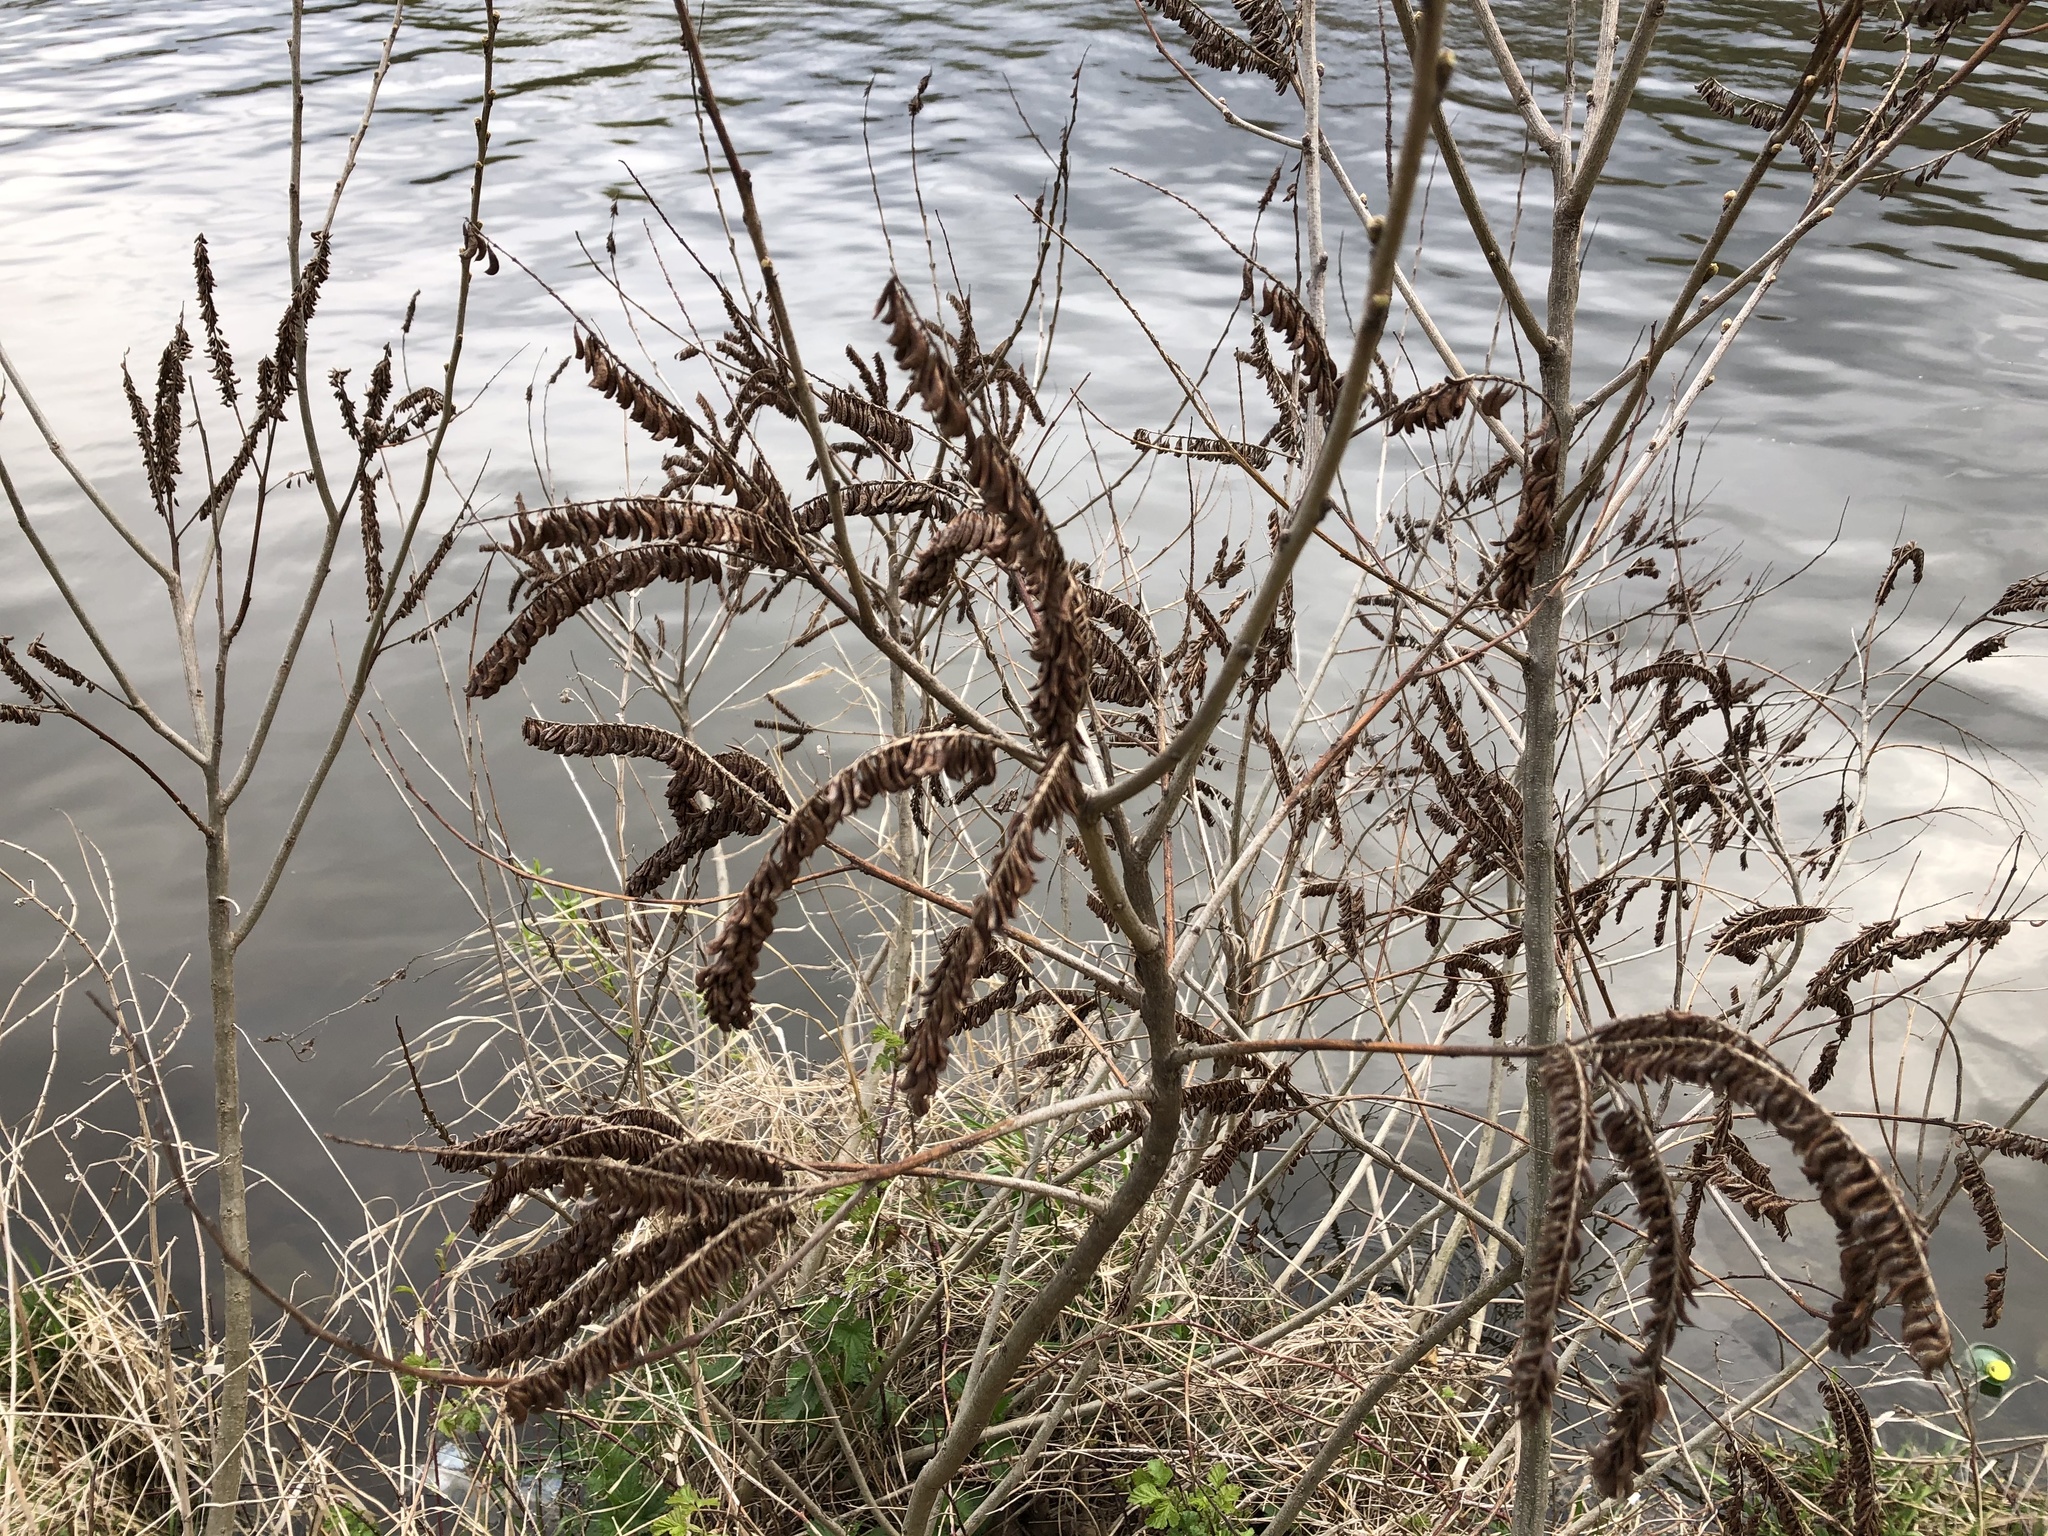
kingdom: Plantae
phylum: Tracheophyta
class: Magnoliopsida
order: Fabales
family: Fabaceae
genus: Amorpha
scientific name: Amorpha fruticosa
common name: False indigo
